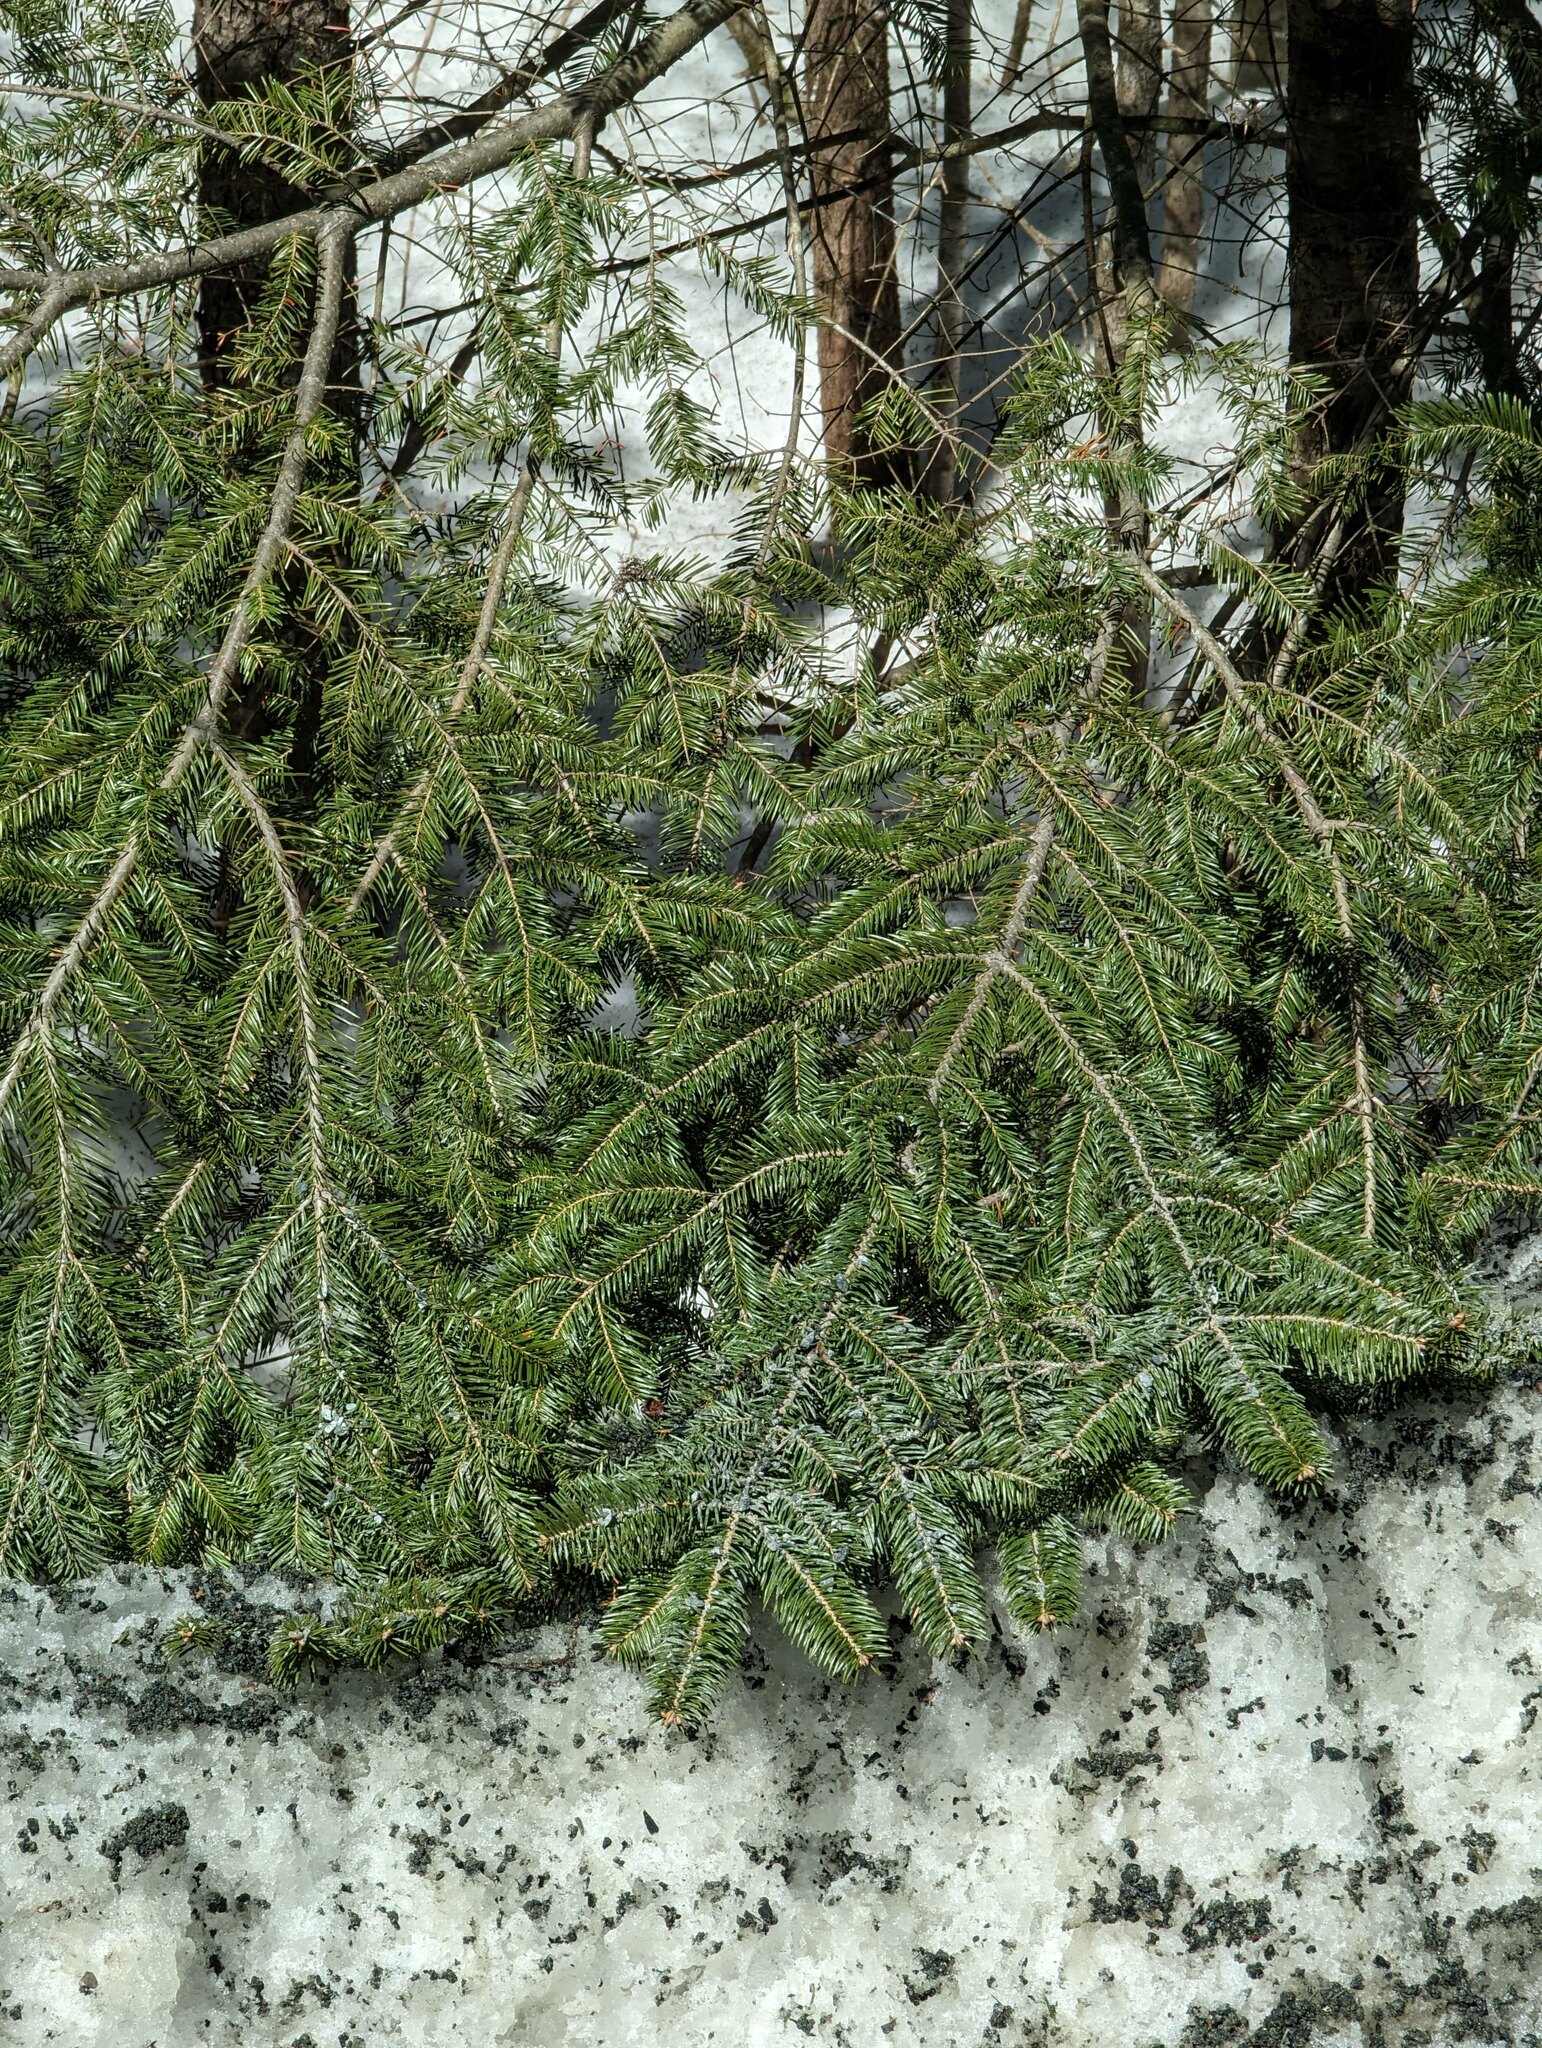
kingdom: Plantae
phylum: Tracheophyta
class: Pinopsida
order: Pinales
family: Pinaceae
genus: Abies
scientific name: Abies balsamea
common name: Balsam fir
